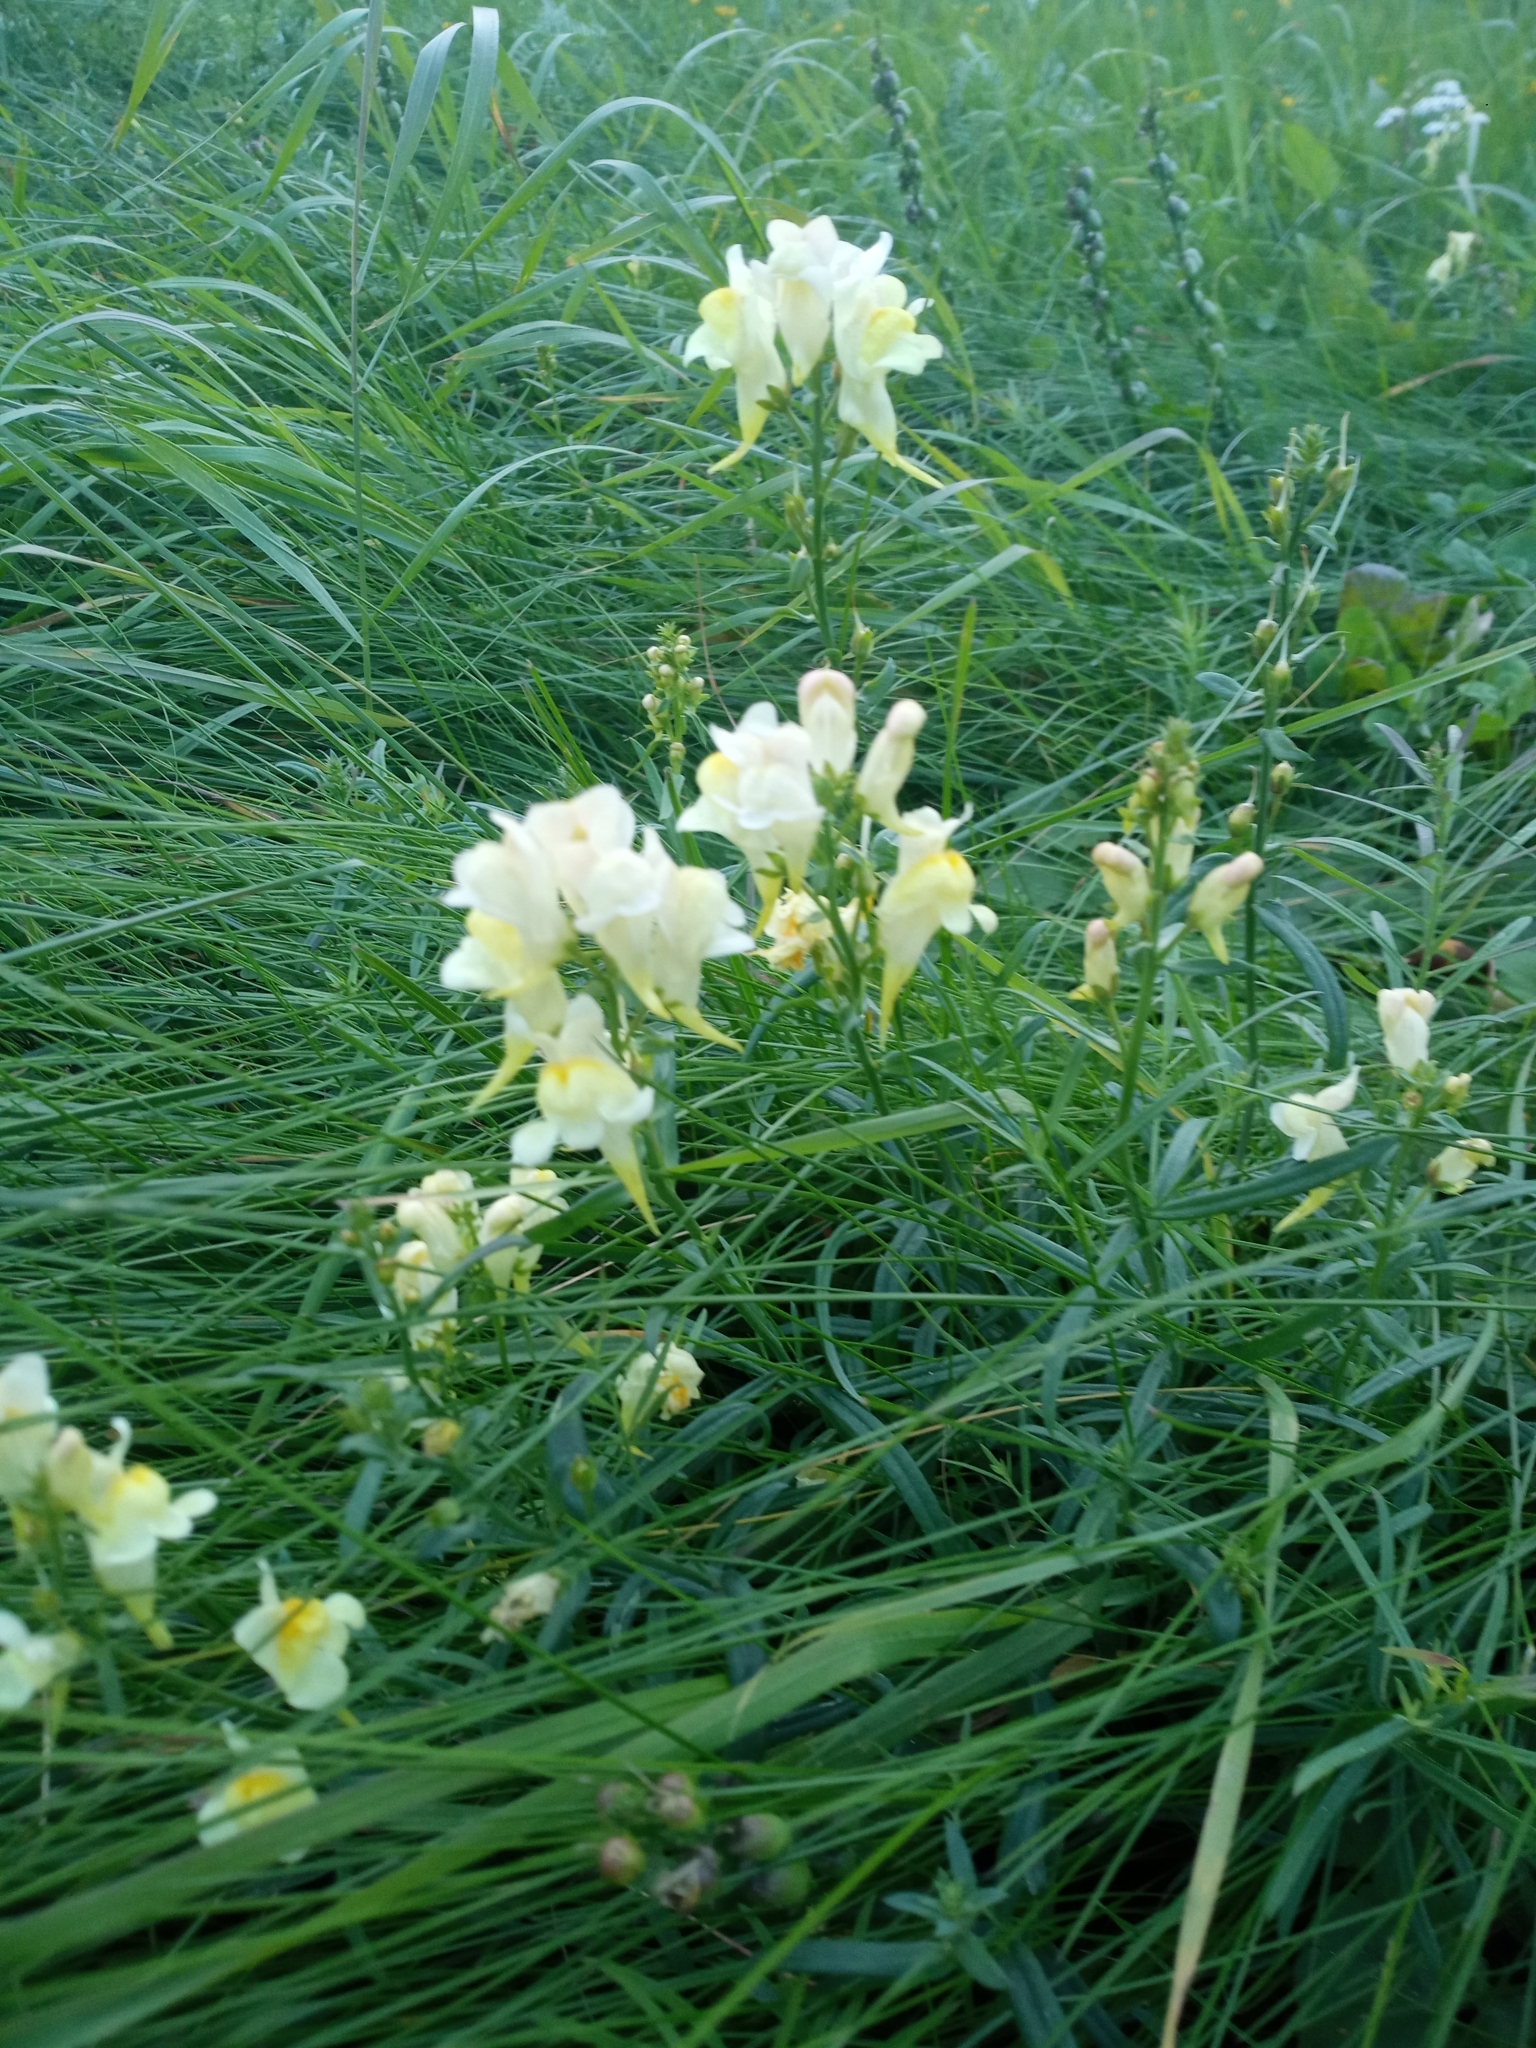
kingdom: Plantae
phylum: Tracheophyta
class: Magnoliopsida
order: Lamiales
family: Plantaginaceae
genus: Linaria
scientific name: Linaria vulgaris
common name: Butter and eggs
